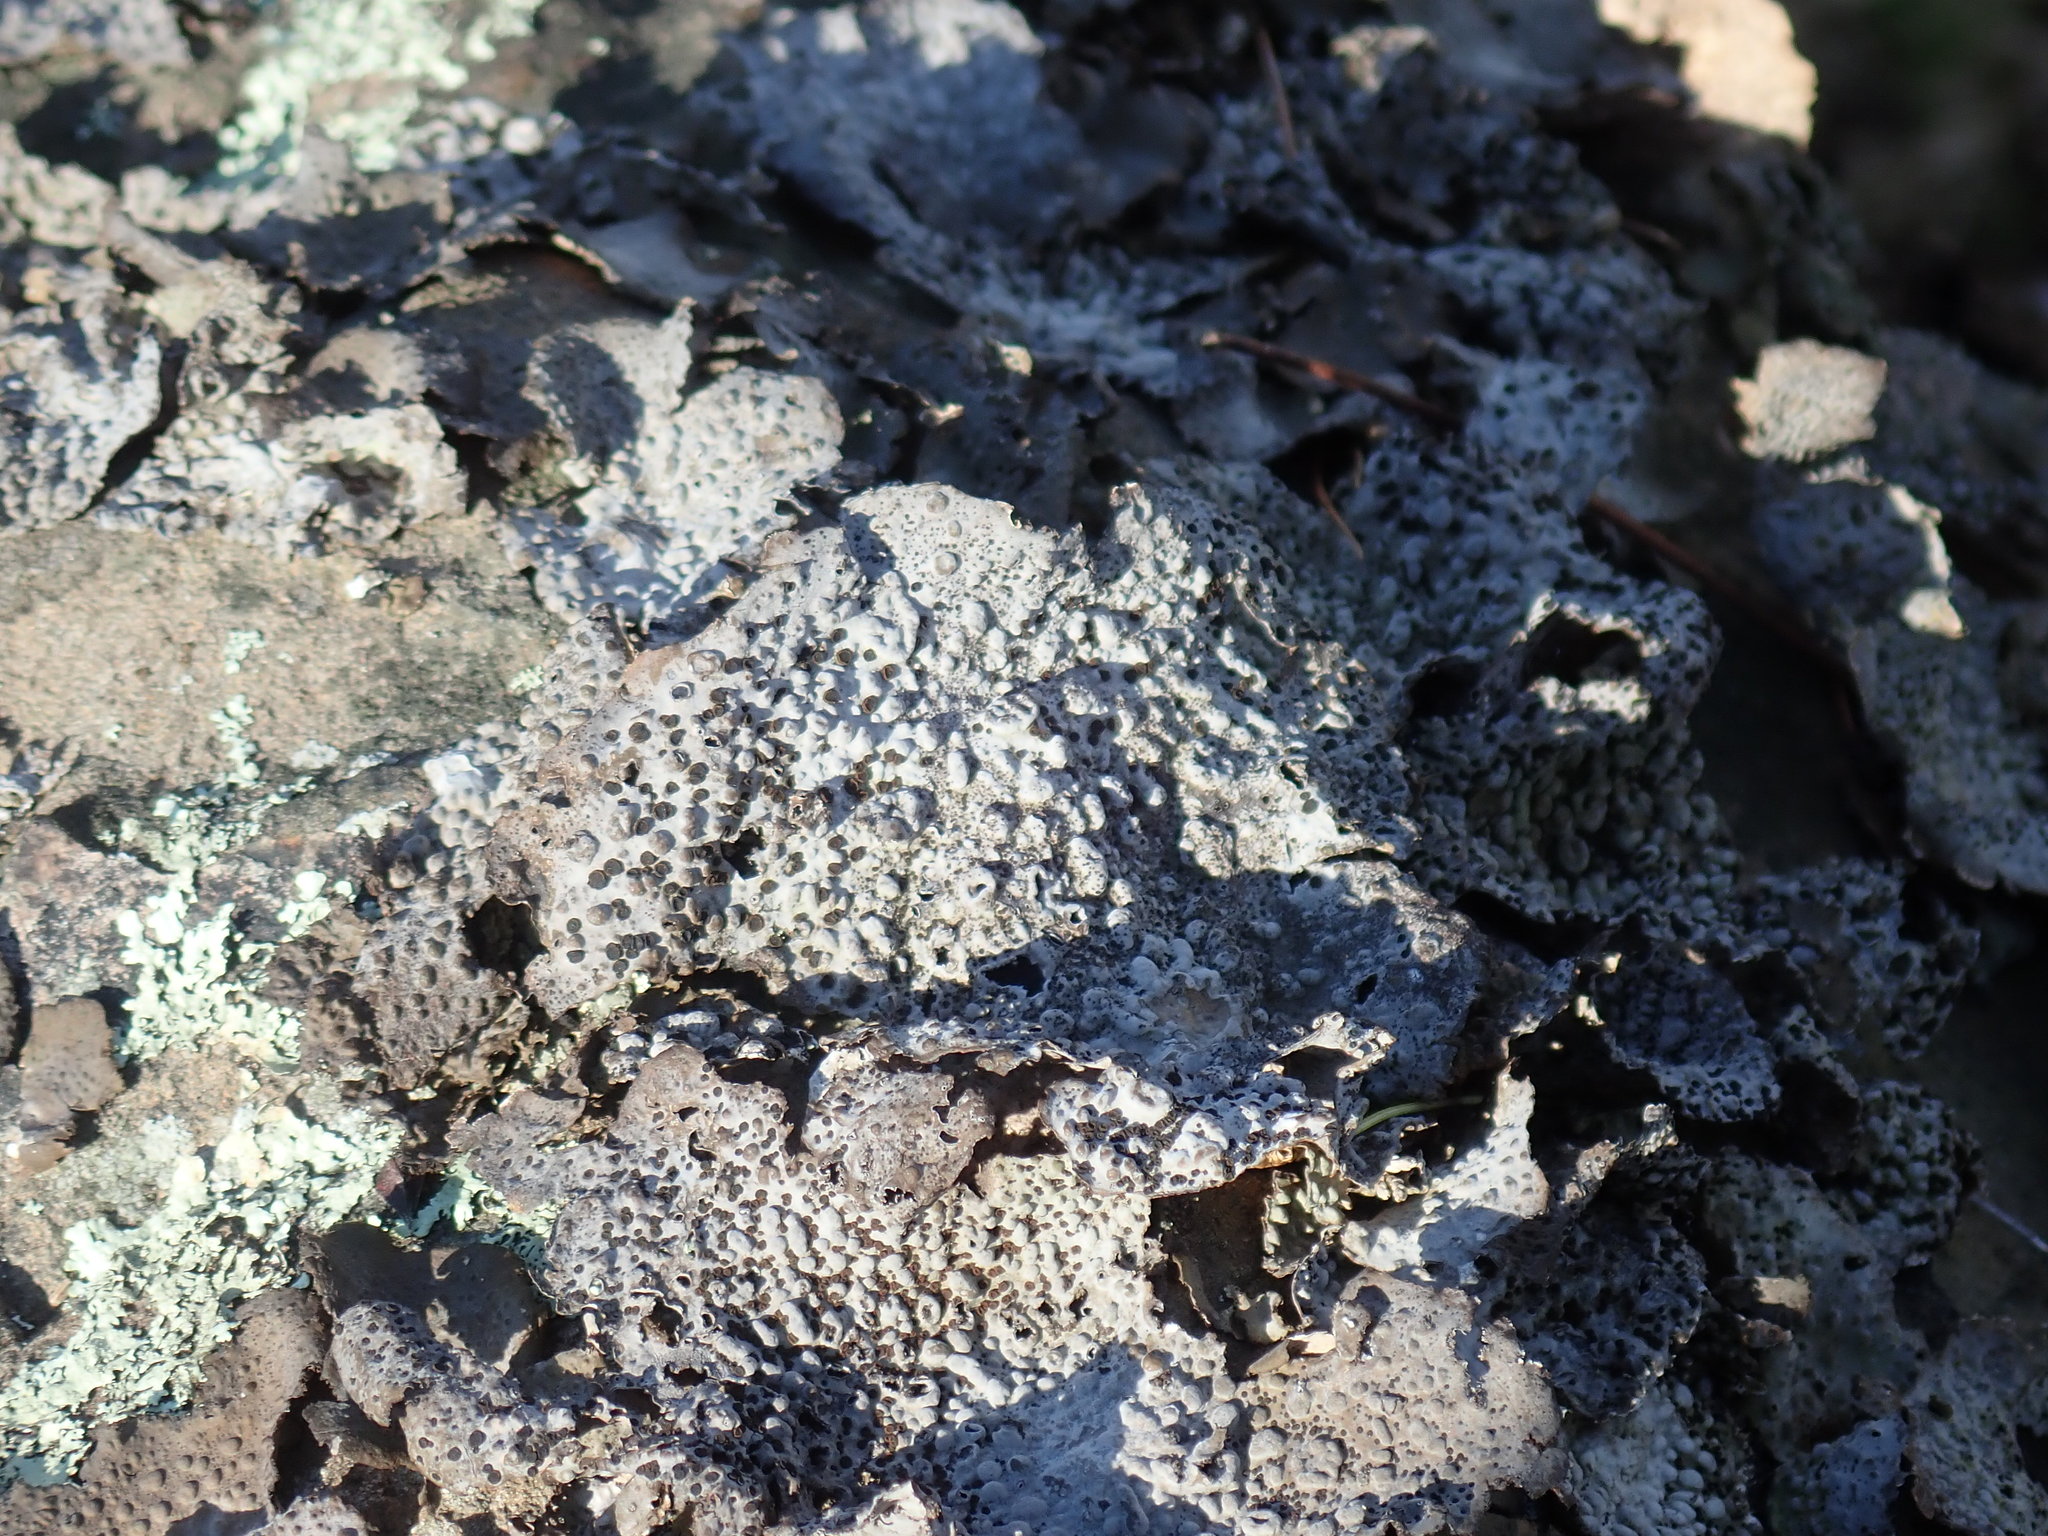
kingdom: Fungi
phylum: Ascomycota
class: Lecanoromycetes
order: Umbilicariales
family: Umbilicariaceae
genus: Lasallia
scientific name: Lasallia papulosa
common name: Common toadskin lichen
